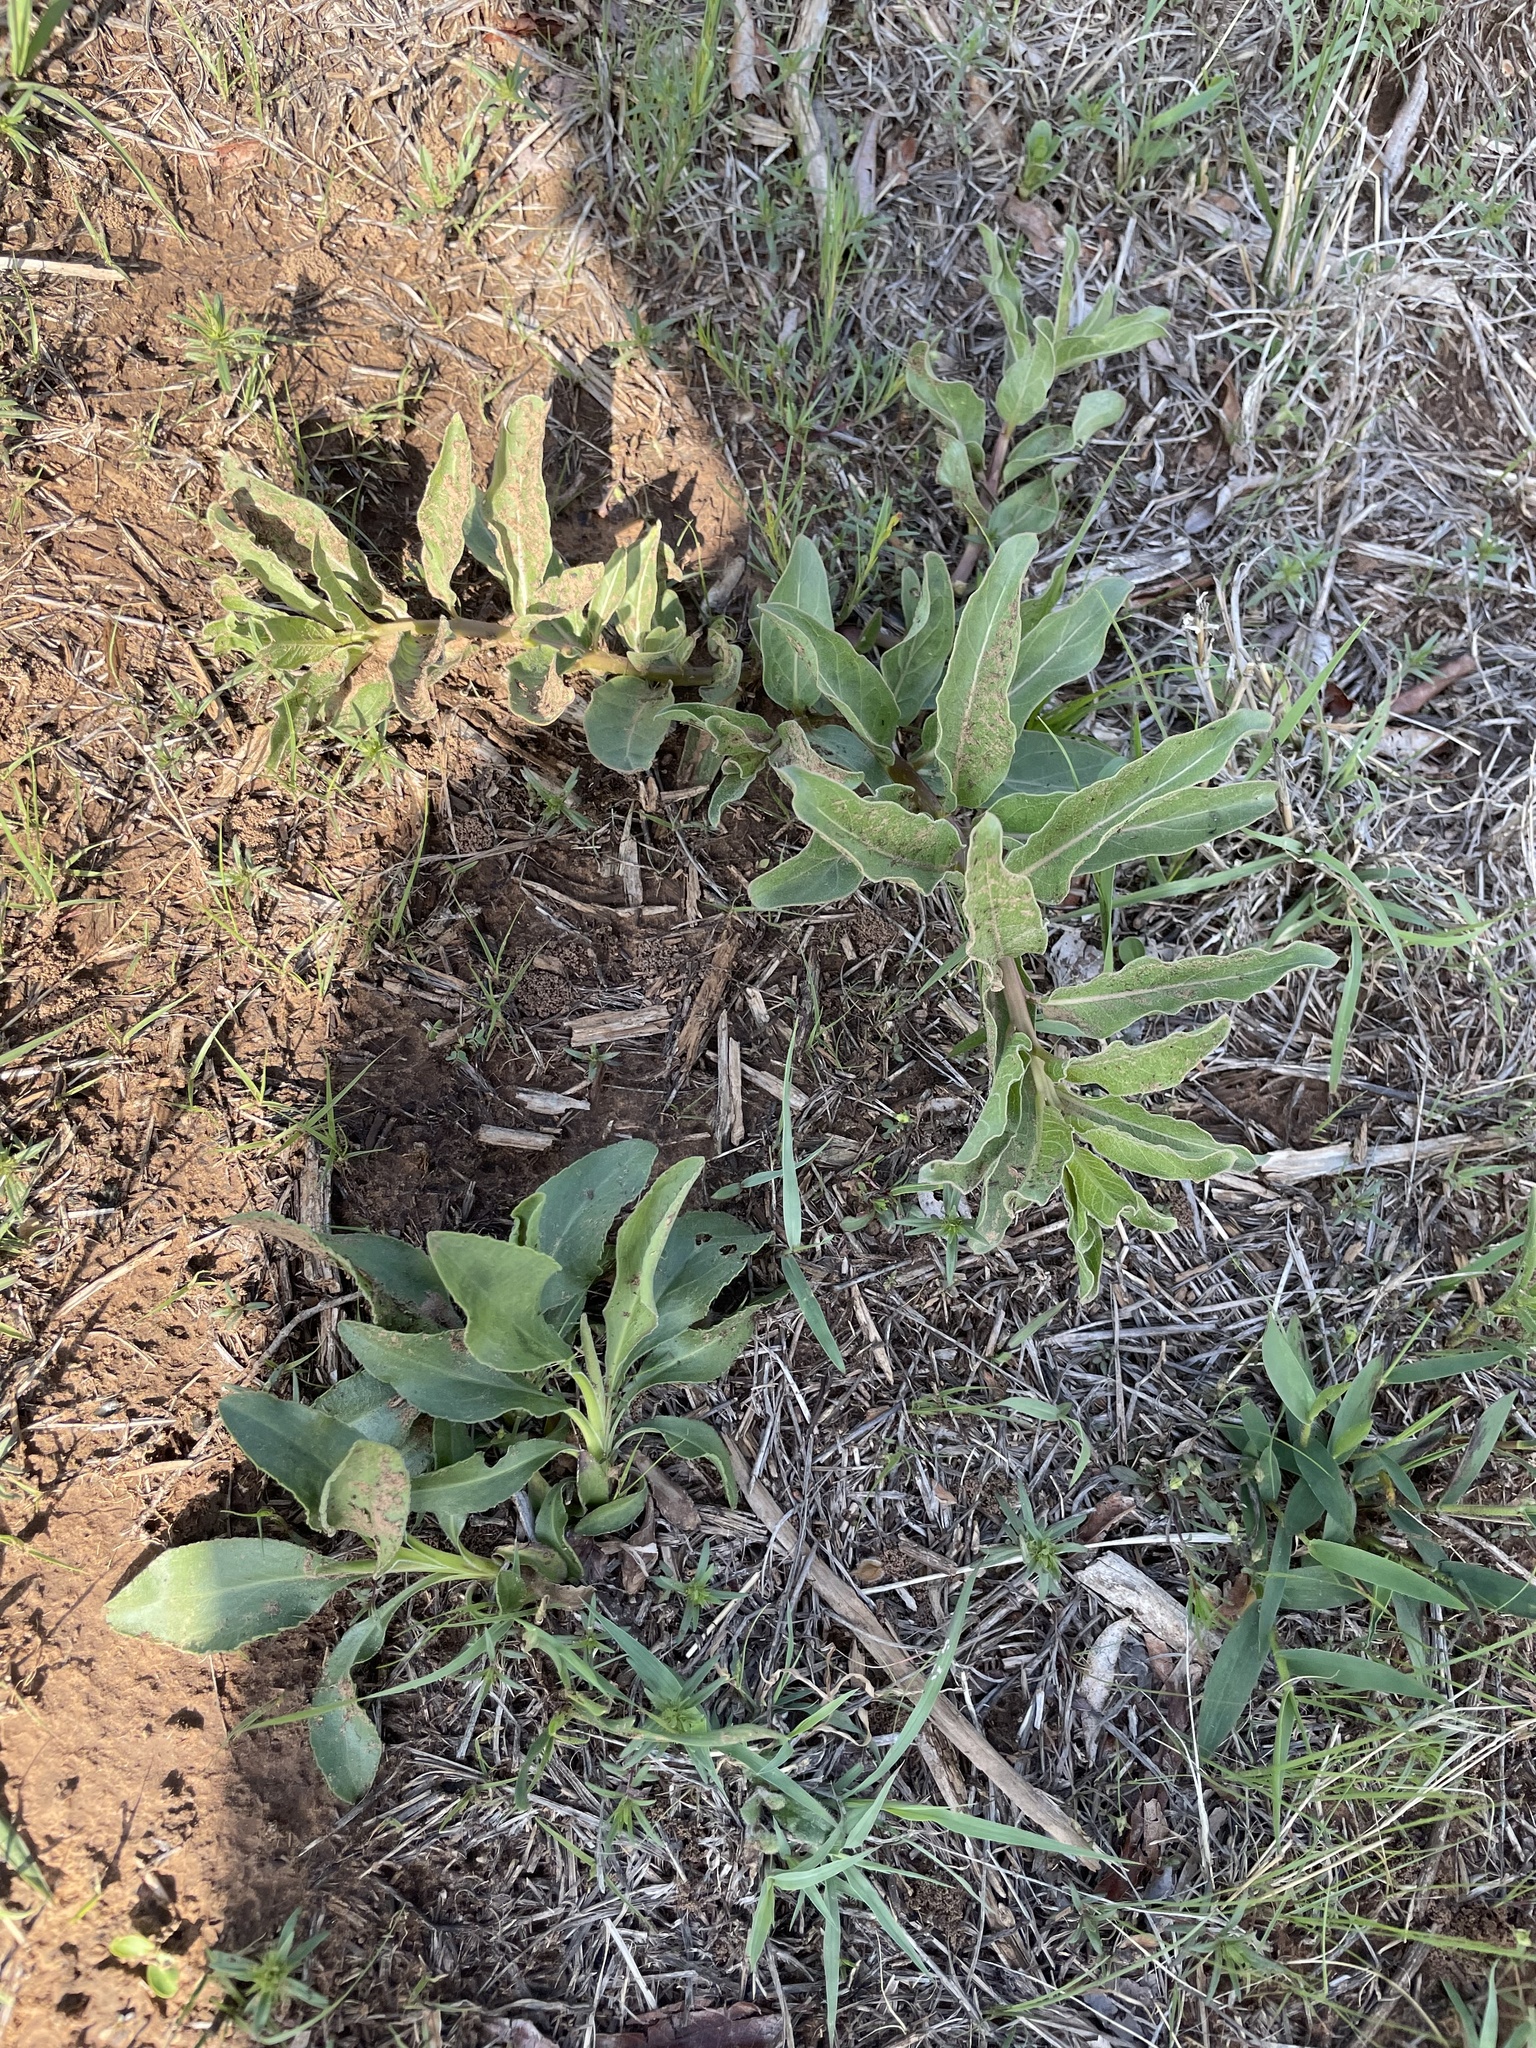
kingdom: Plantae
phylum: Tracheophyta
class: Magnoliopsida
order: Gentianales
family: Apocynaceae
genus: Asclepias
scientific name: Asclepias viridis
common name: Antelope-horns
